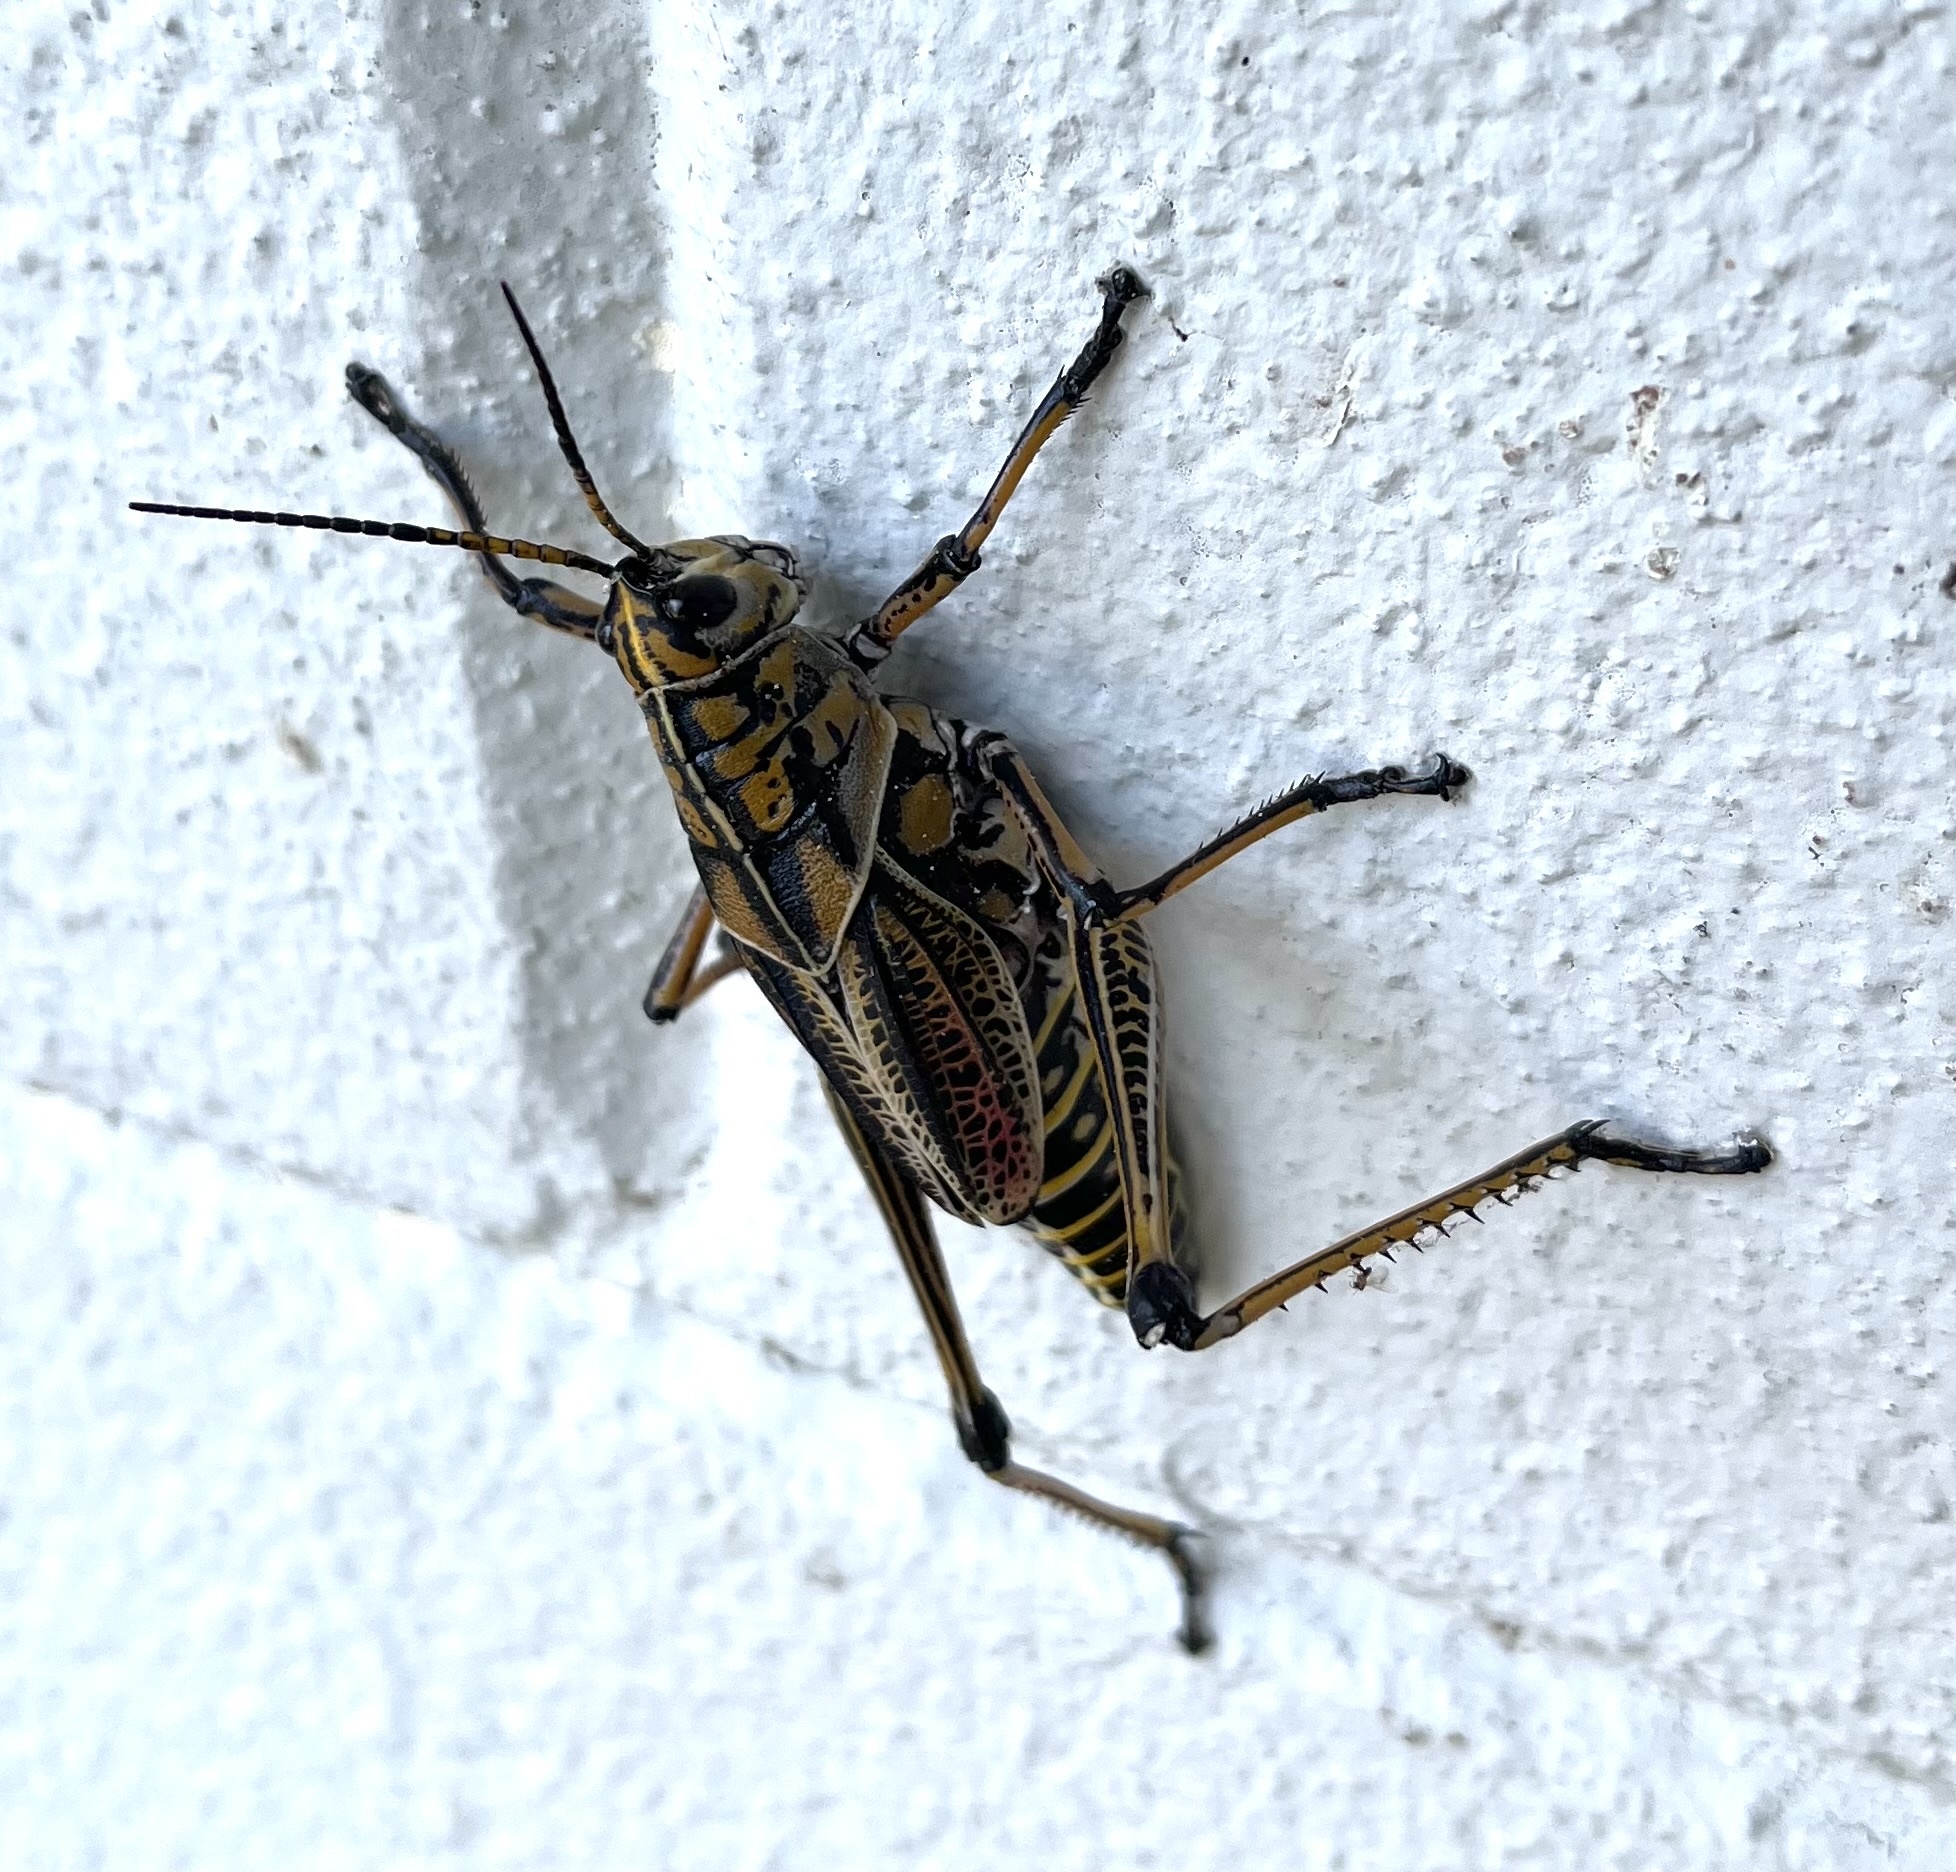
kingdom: Animalia
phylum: Arthropoda
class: Insecta
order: Orthoptera
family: Romaleidae
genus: Romalea
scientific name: Romalea microptera
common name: Eastern lubber grasshopper
